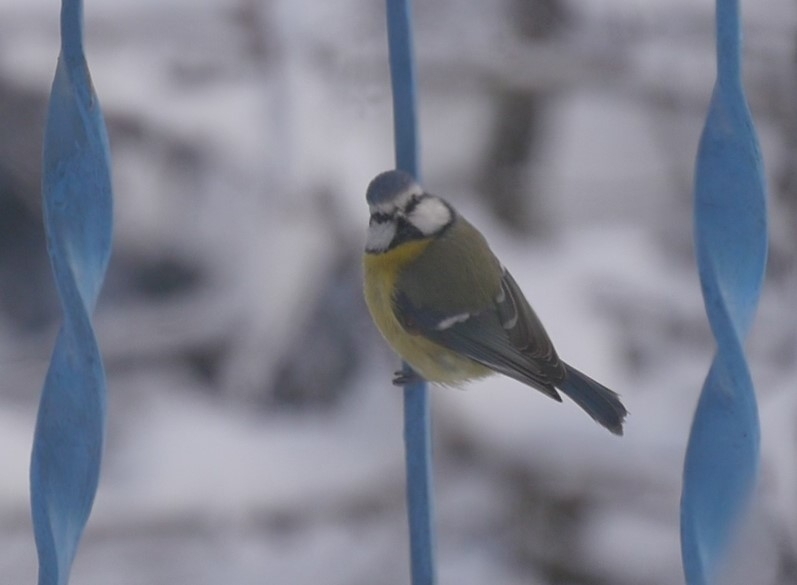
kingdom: Animalia
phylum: Chordata
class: Aves
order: Passeriformes
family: Paridae
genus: Cyanistes
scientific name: Cyanistes caeruleus
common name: Eurasian blue tit
